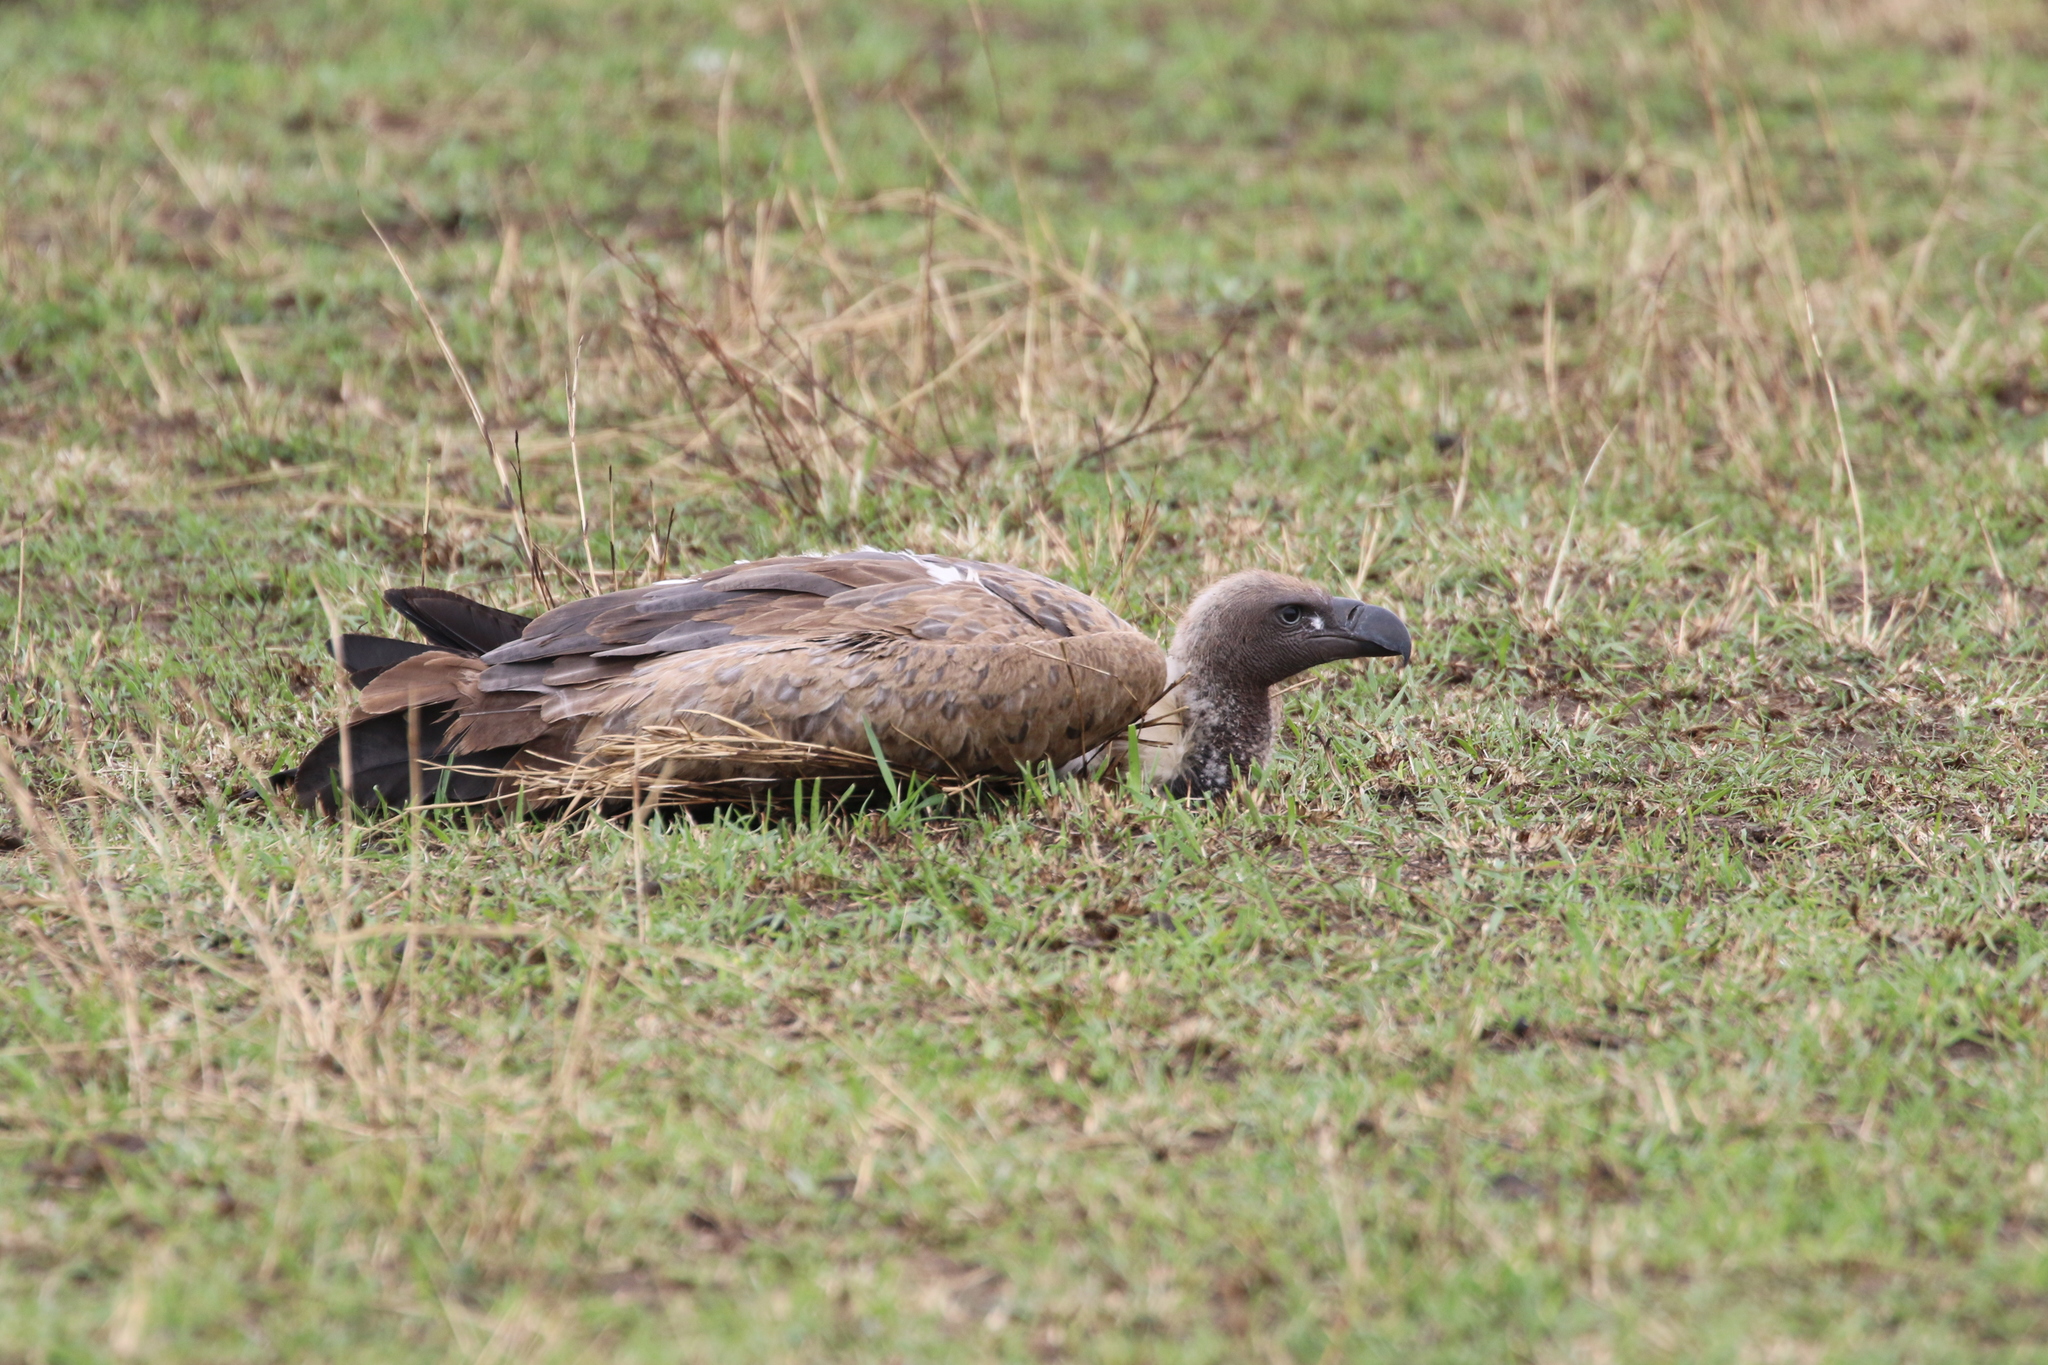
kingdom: Animalia
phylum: Chordata
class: Aves
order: Accipitriformes
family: Accipitridae
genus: Gyps
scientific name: Gyps africanus
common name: White-backed vulture
